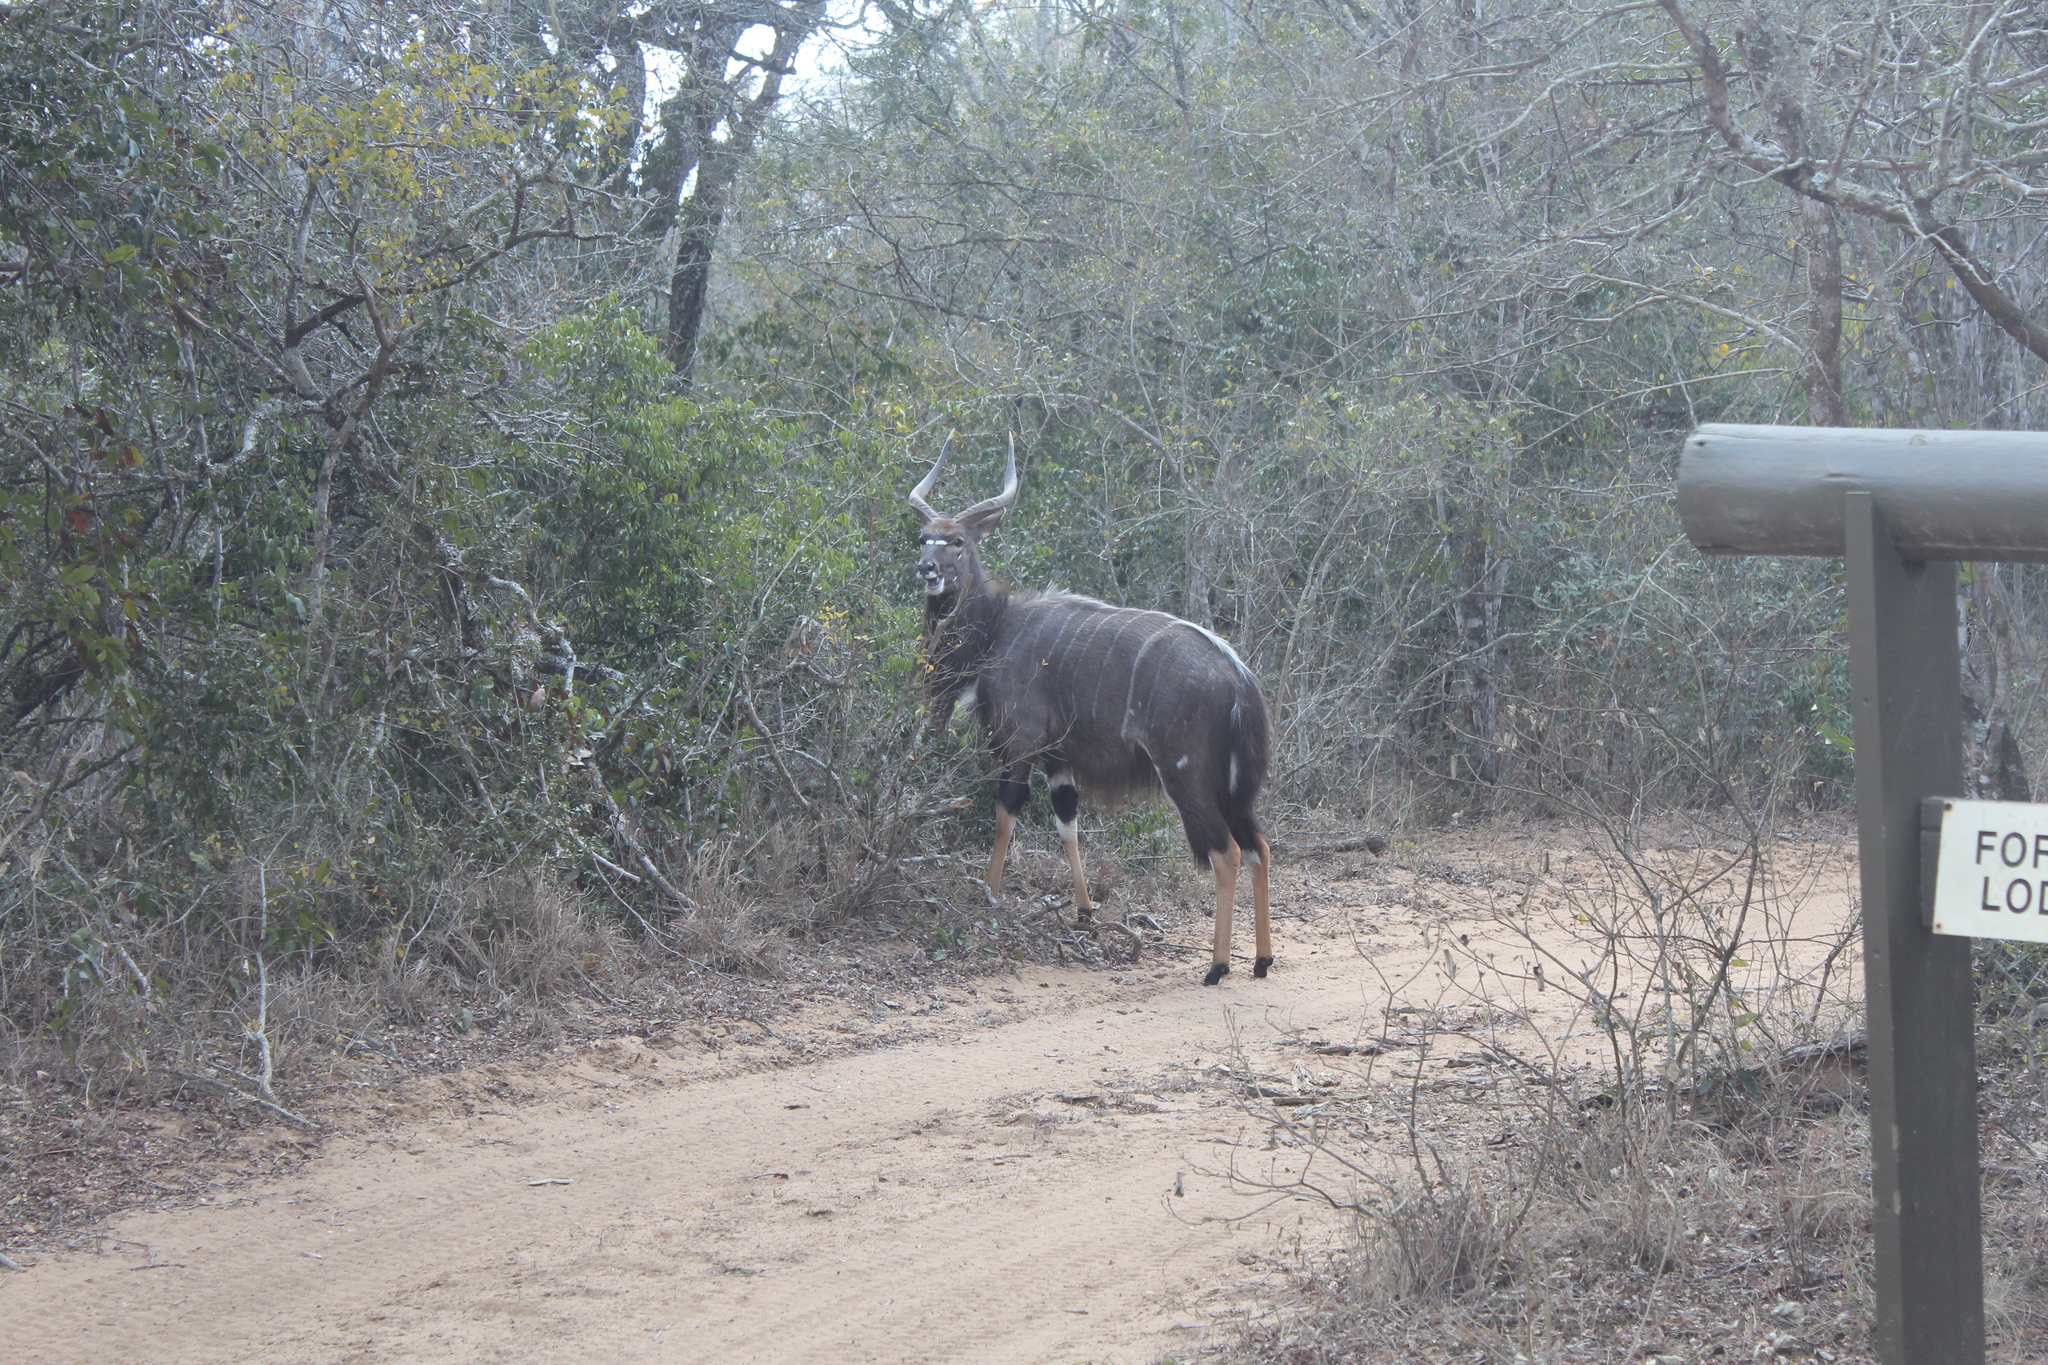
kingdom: Animalia
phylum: Chordata
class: Mammalia
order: Artiodactyla
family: Bovidae
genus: Tragelaphus
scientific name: Tragelaphus angasii
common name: Nyala
